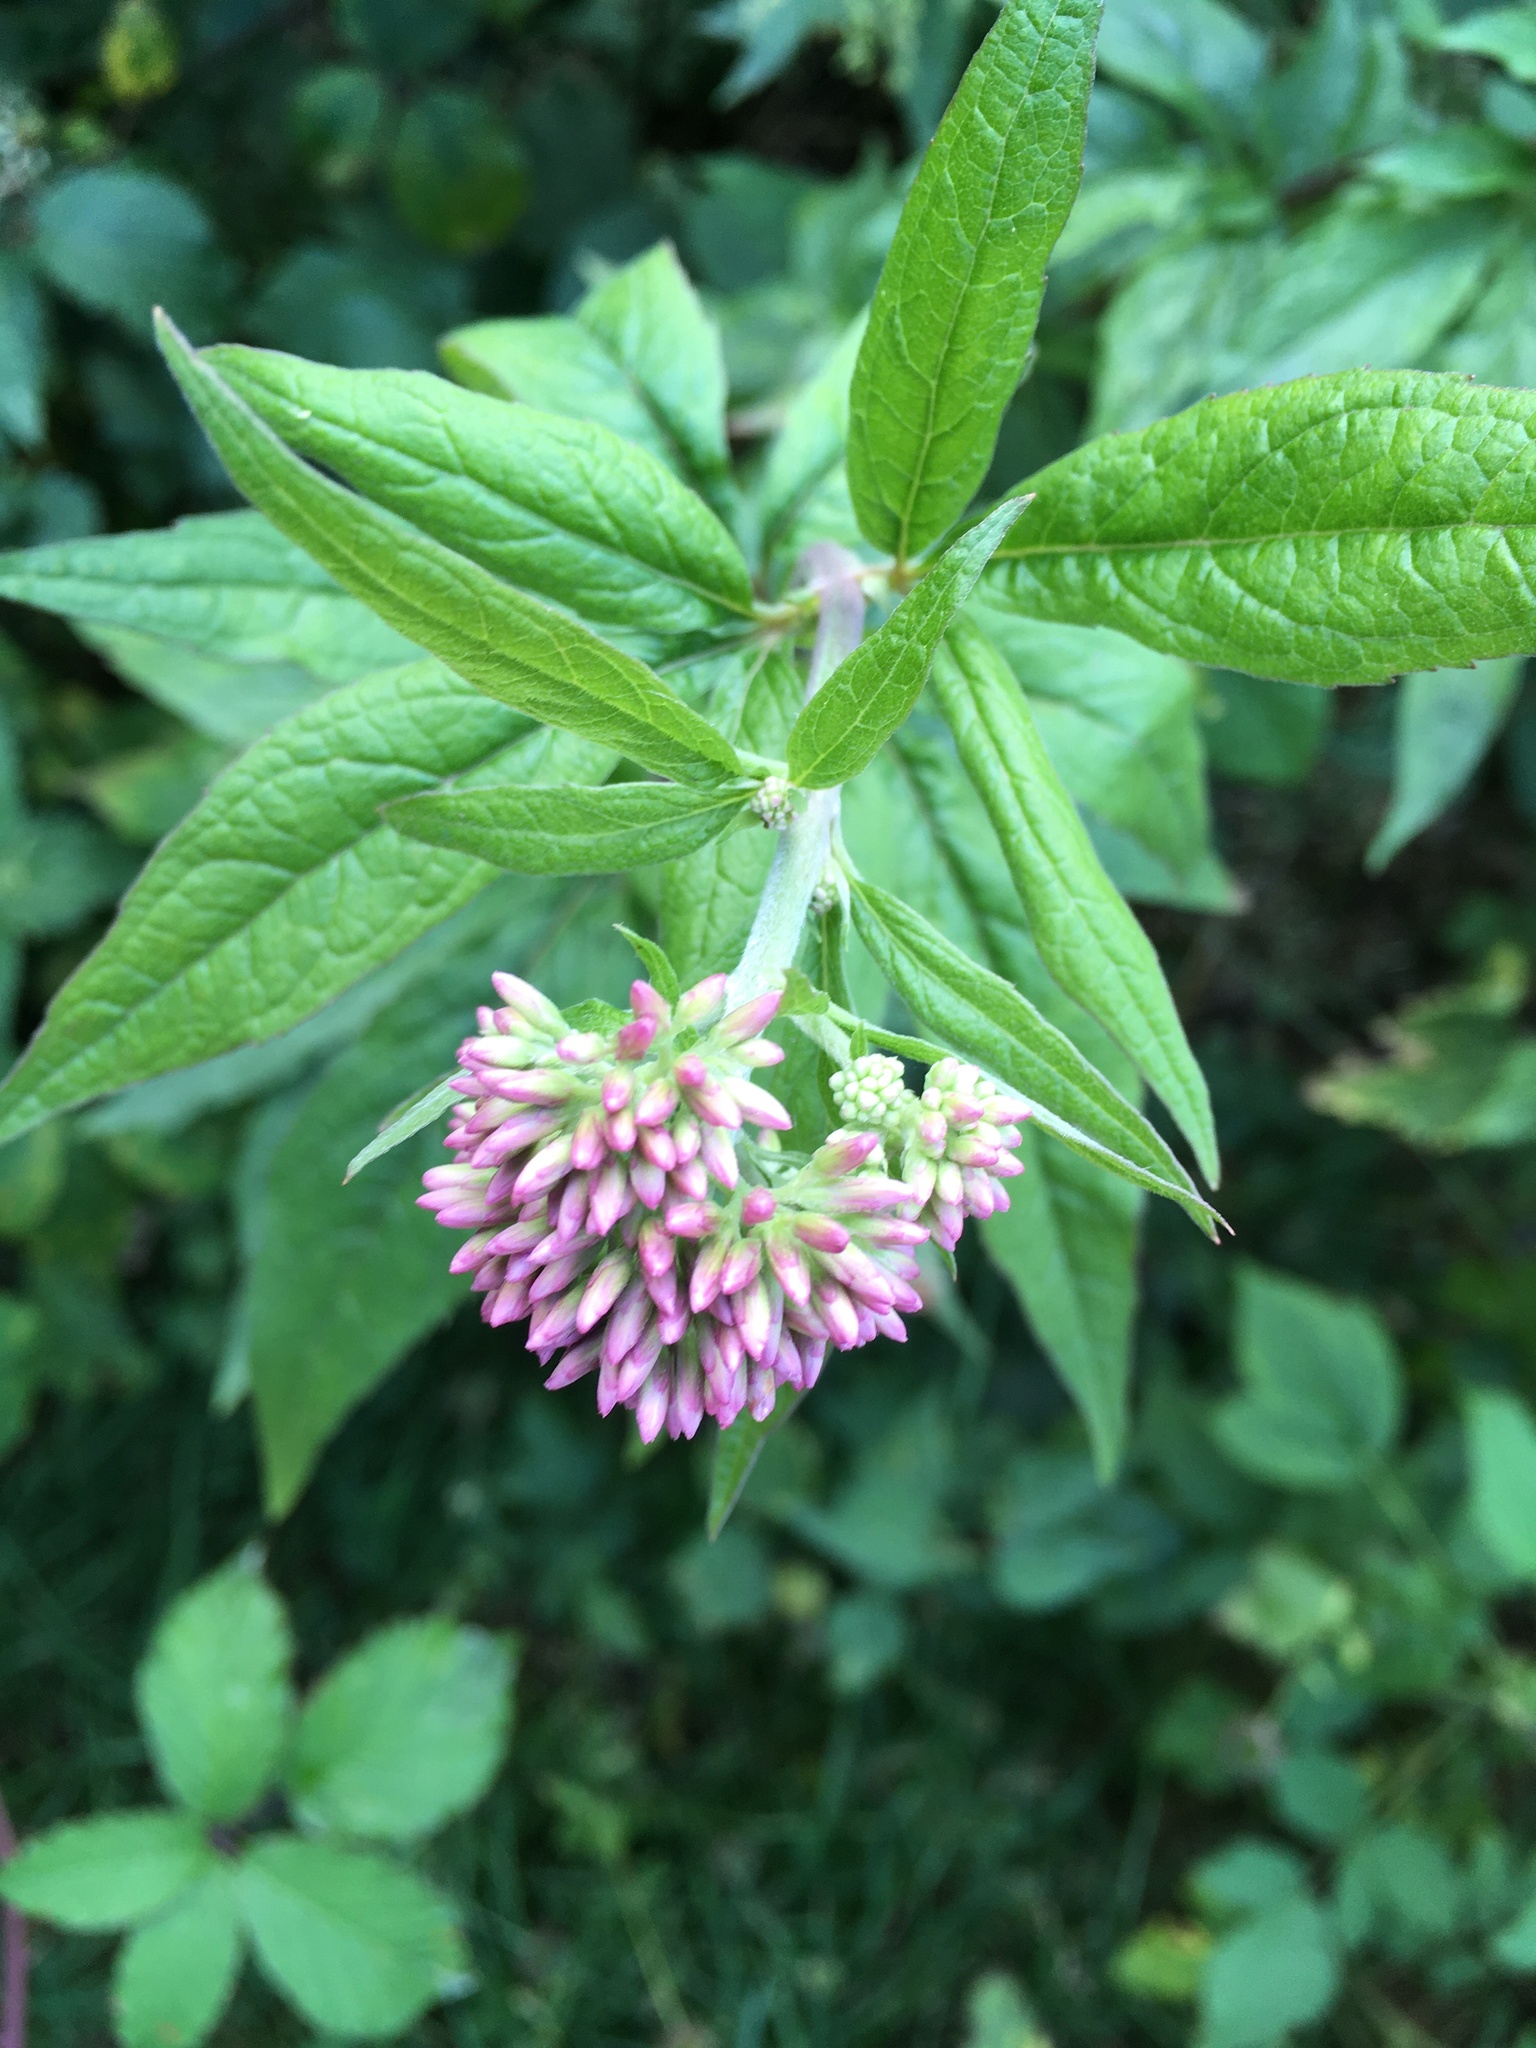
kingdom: Plantae
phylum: Tracheophyta
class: Magnoliopsida
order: Asterales
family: Asteraceae
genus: Eupatorium
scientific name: Eupatorium cannabinum
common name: Hemp-agrimony
